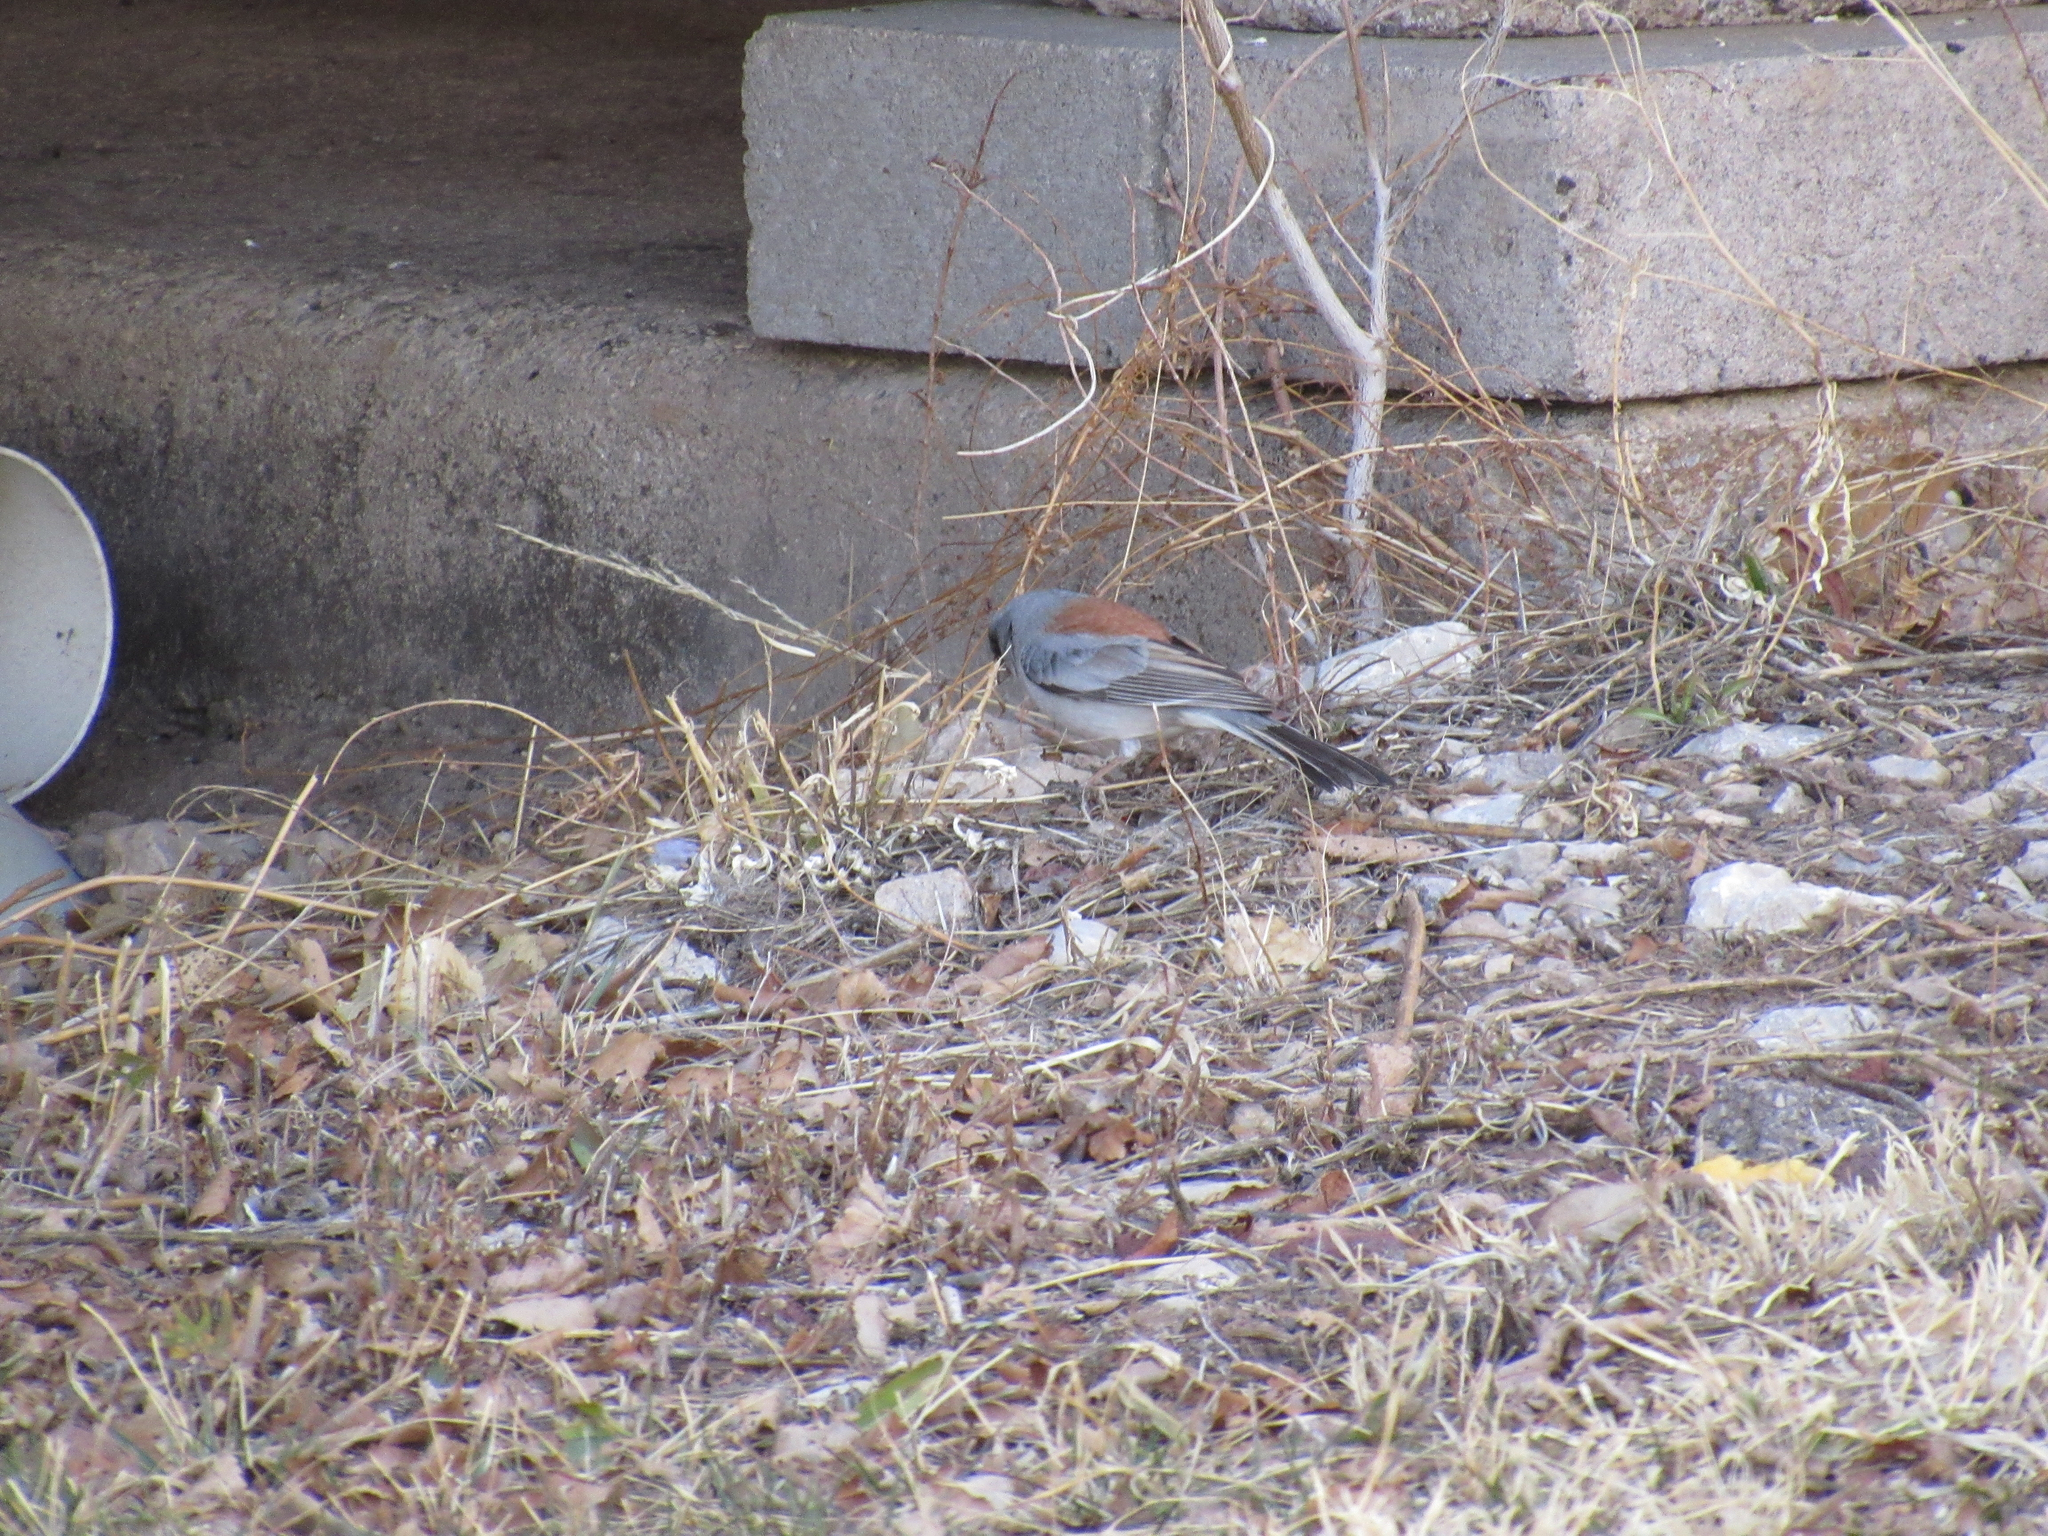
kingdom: Animalia
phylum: Chordata
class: Aves
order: Passeriformes
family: Passerellidae
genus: Junco
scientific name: Junco hyemalis
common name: Dark-eyed junco
